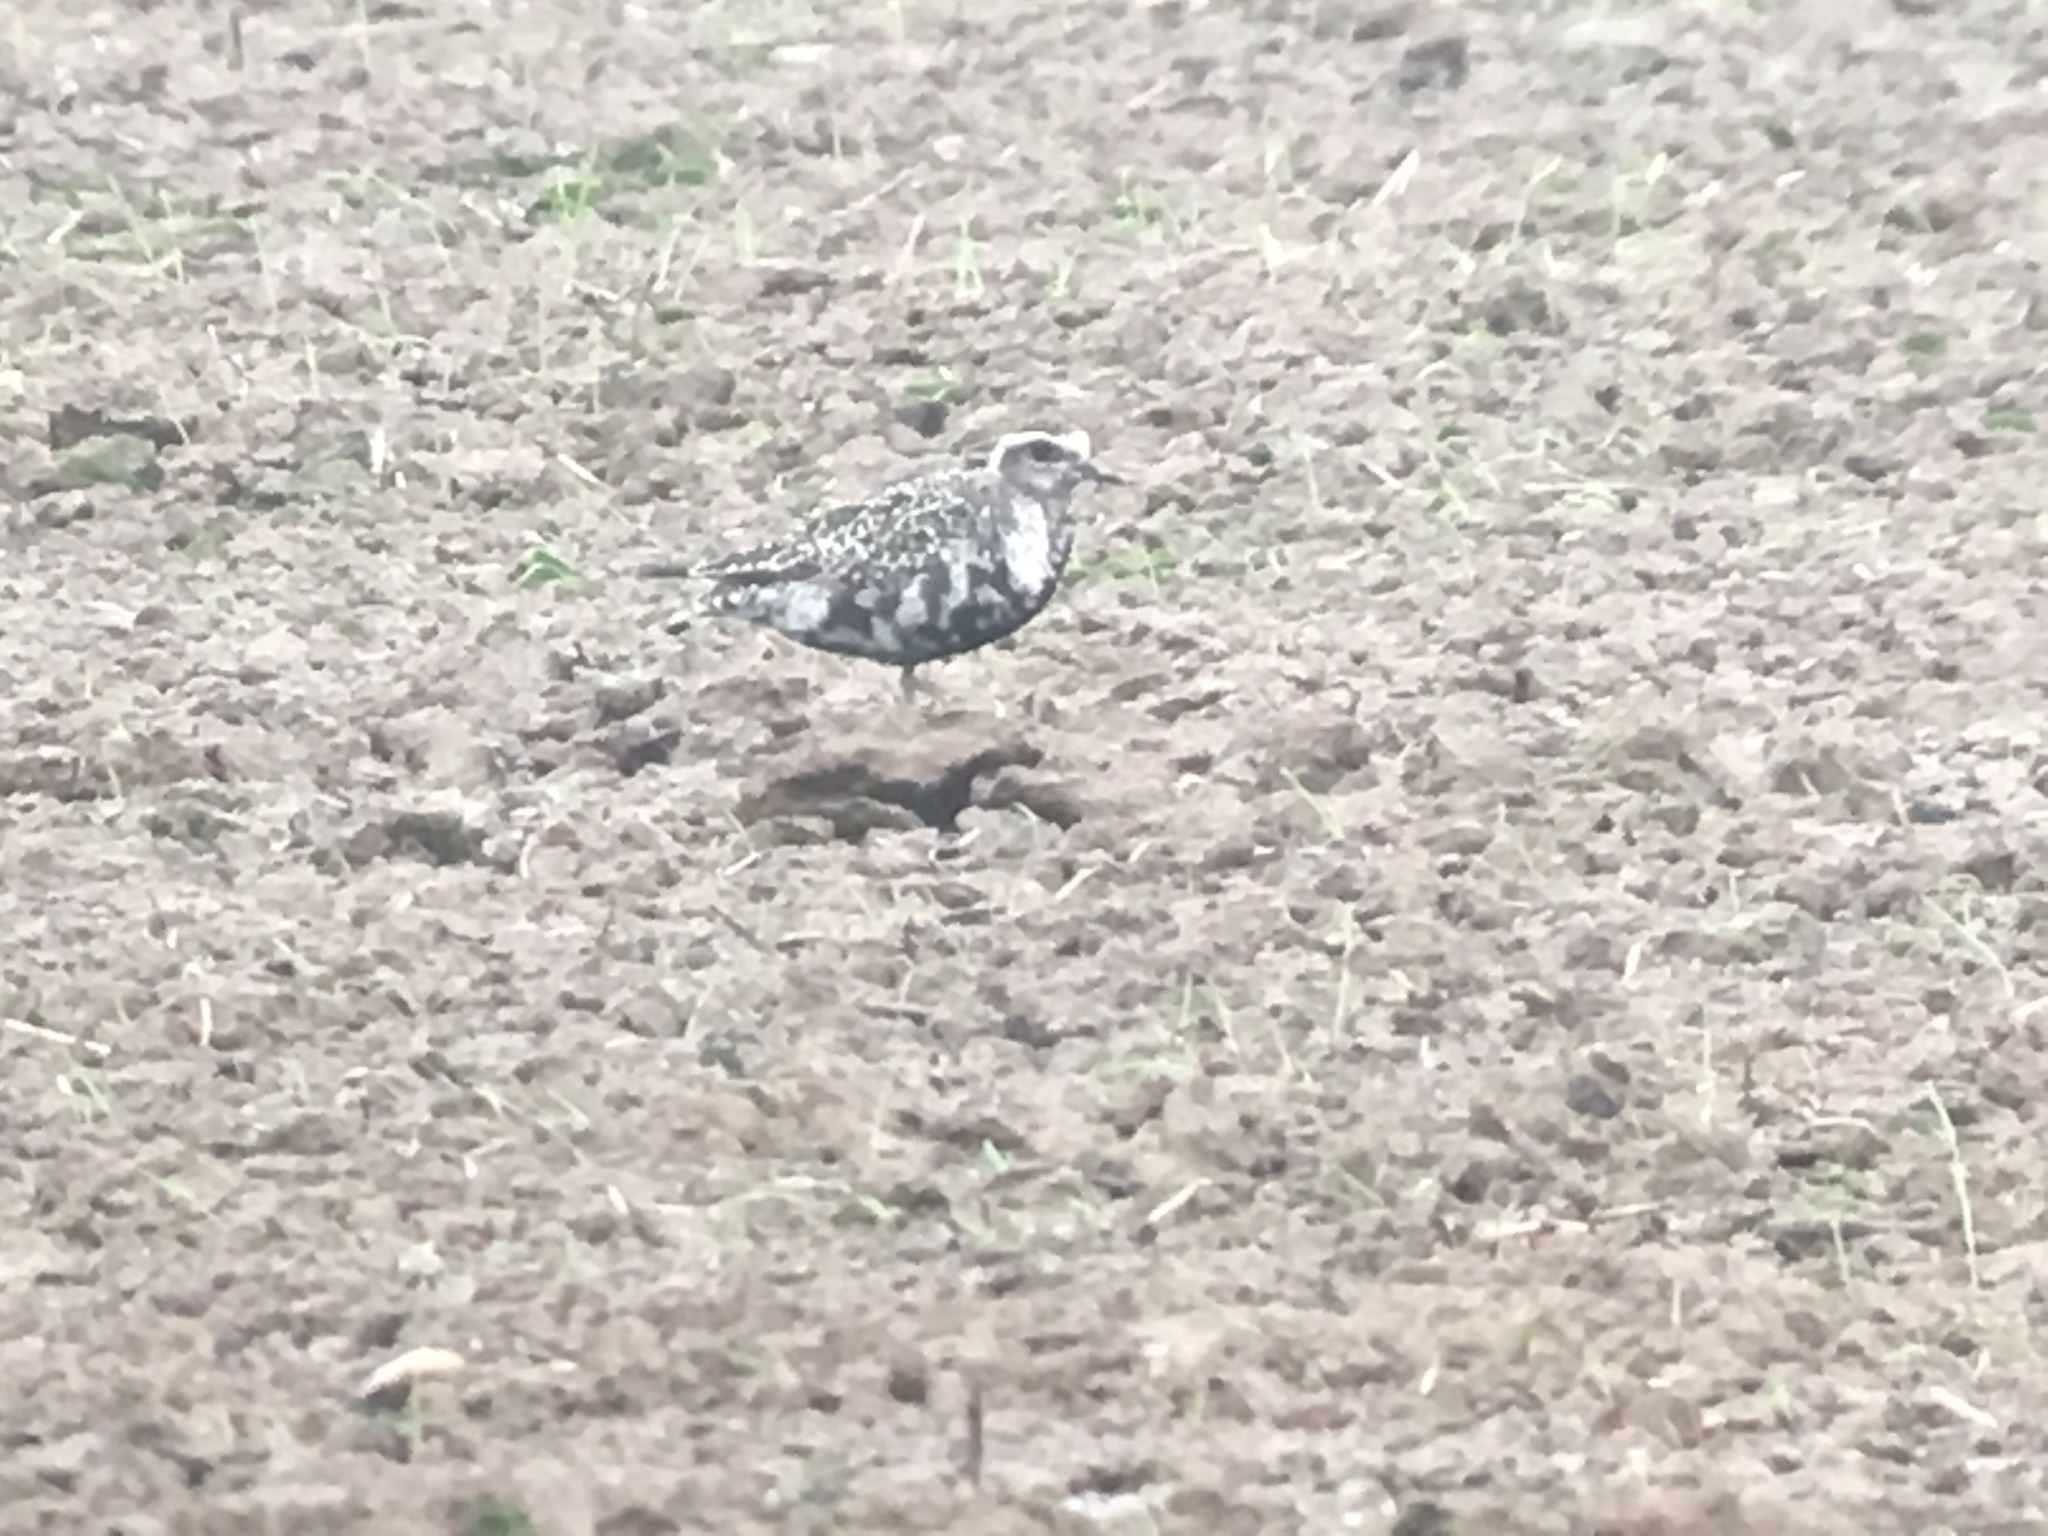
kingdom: Animalia
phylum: Chordata
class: Aves
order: Charadriiformes
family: Charadriidae
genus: Pluvialis
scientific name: Pluvialis dominica
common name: American golden plover
